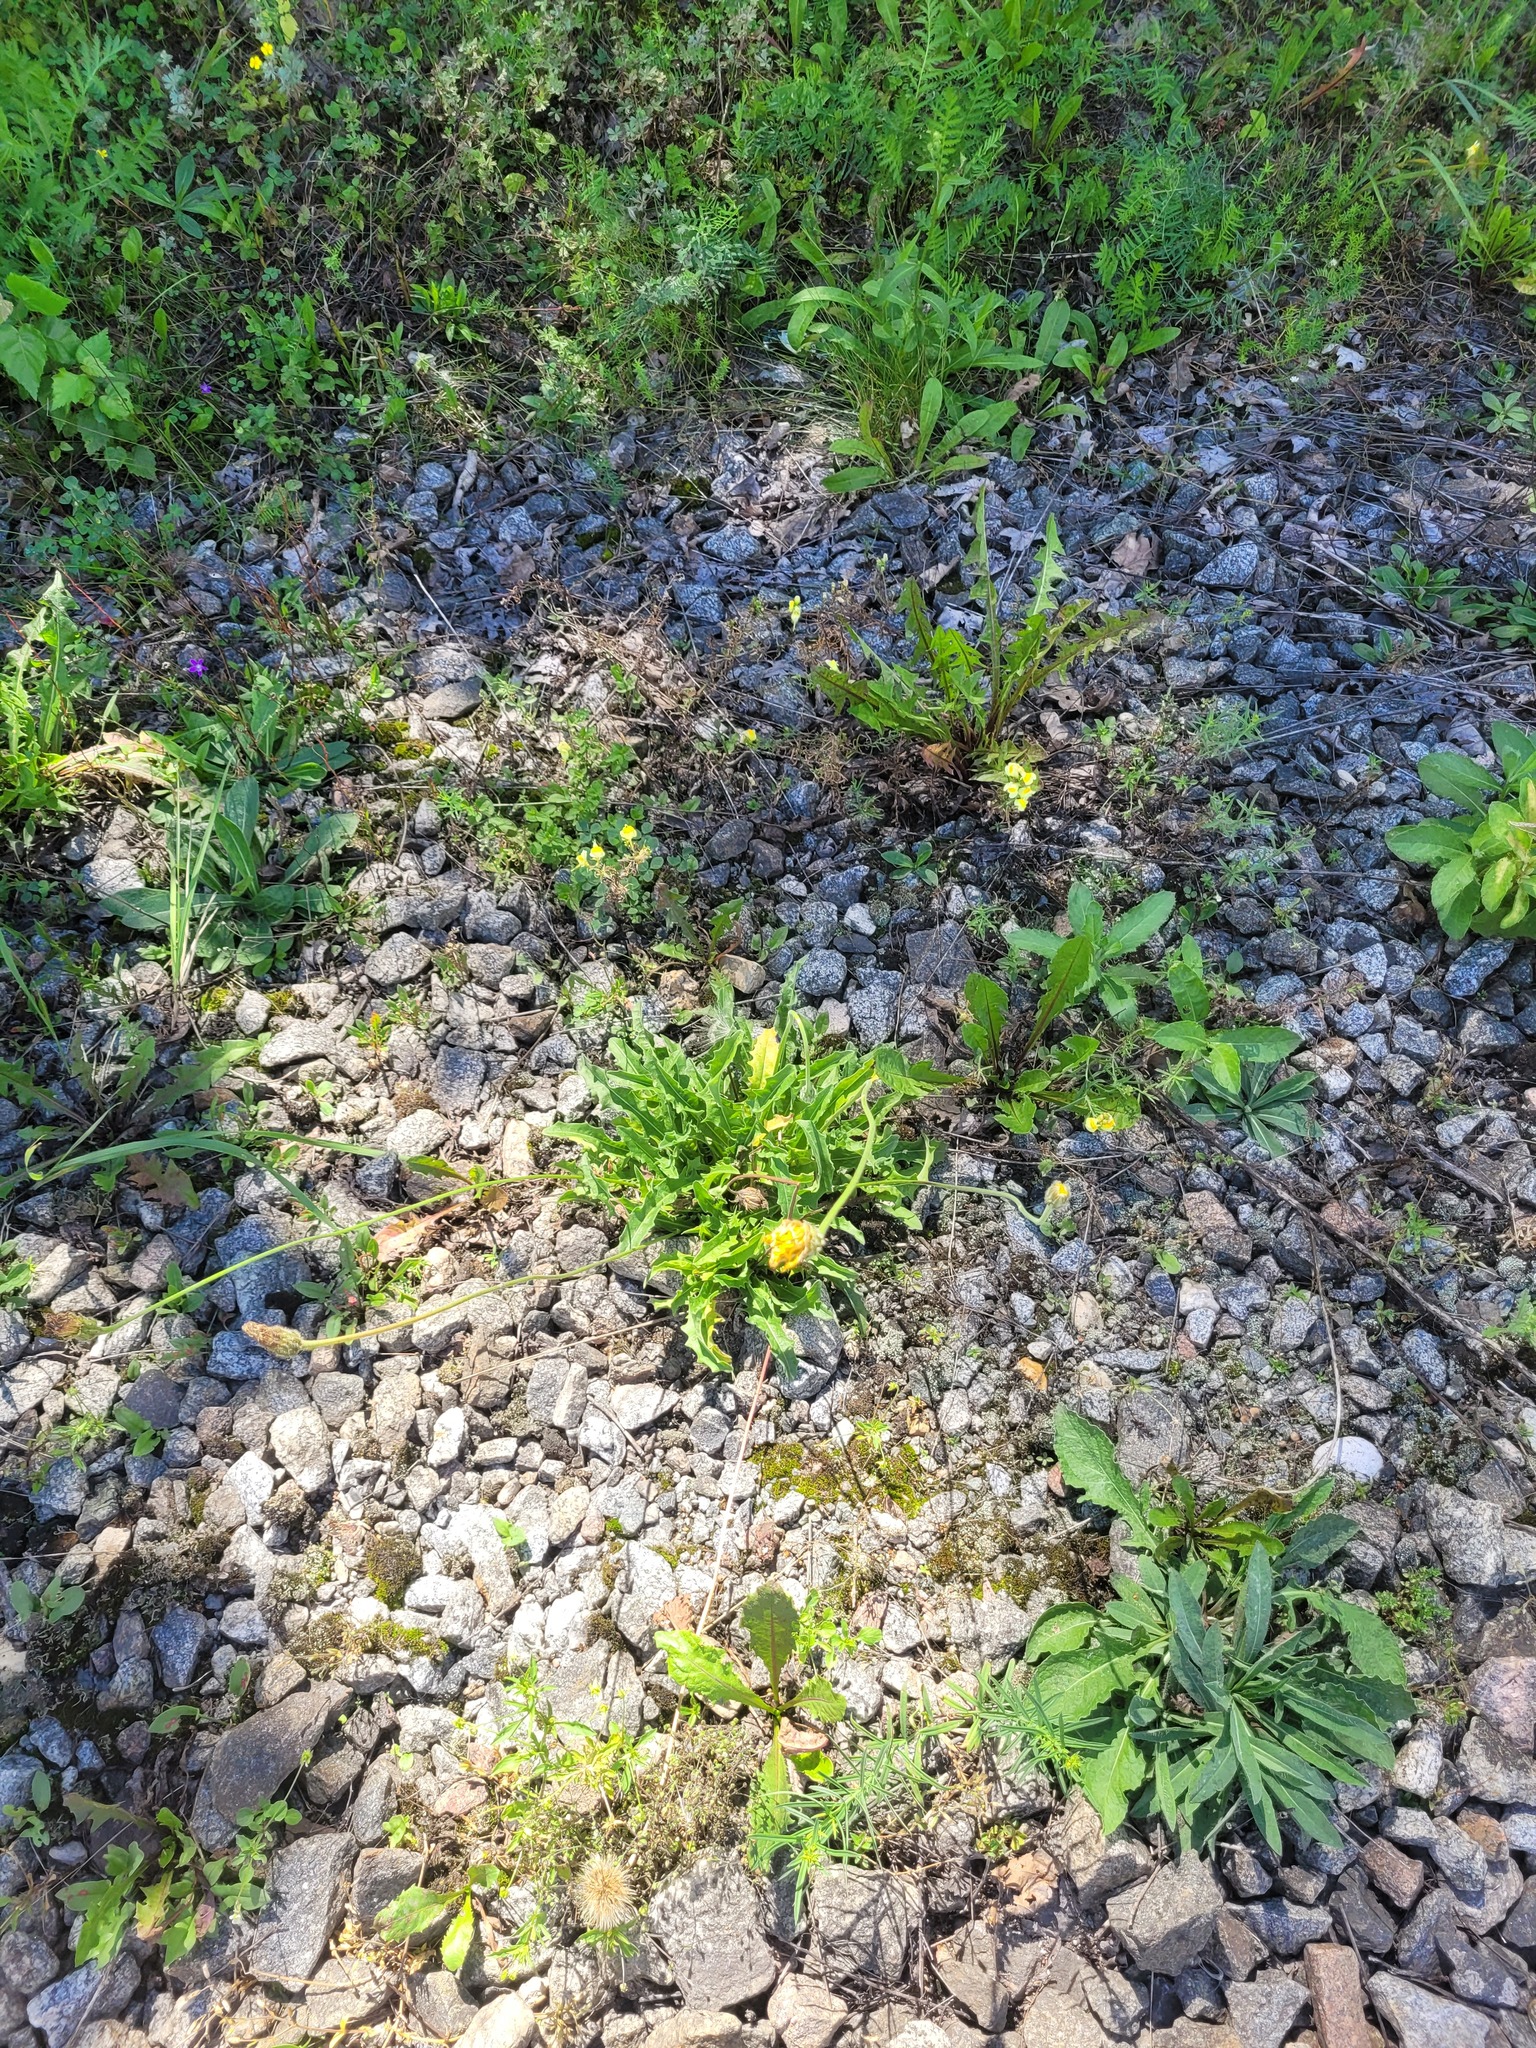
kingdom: Plantae
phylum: Tracheophyta
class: Magnoliopsida
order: Asterales
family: Asteraceae
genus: Leontodon
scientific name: Leontodon hispidus
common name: Rough hawkbit
